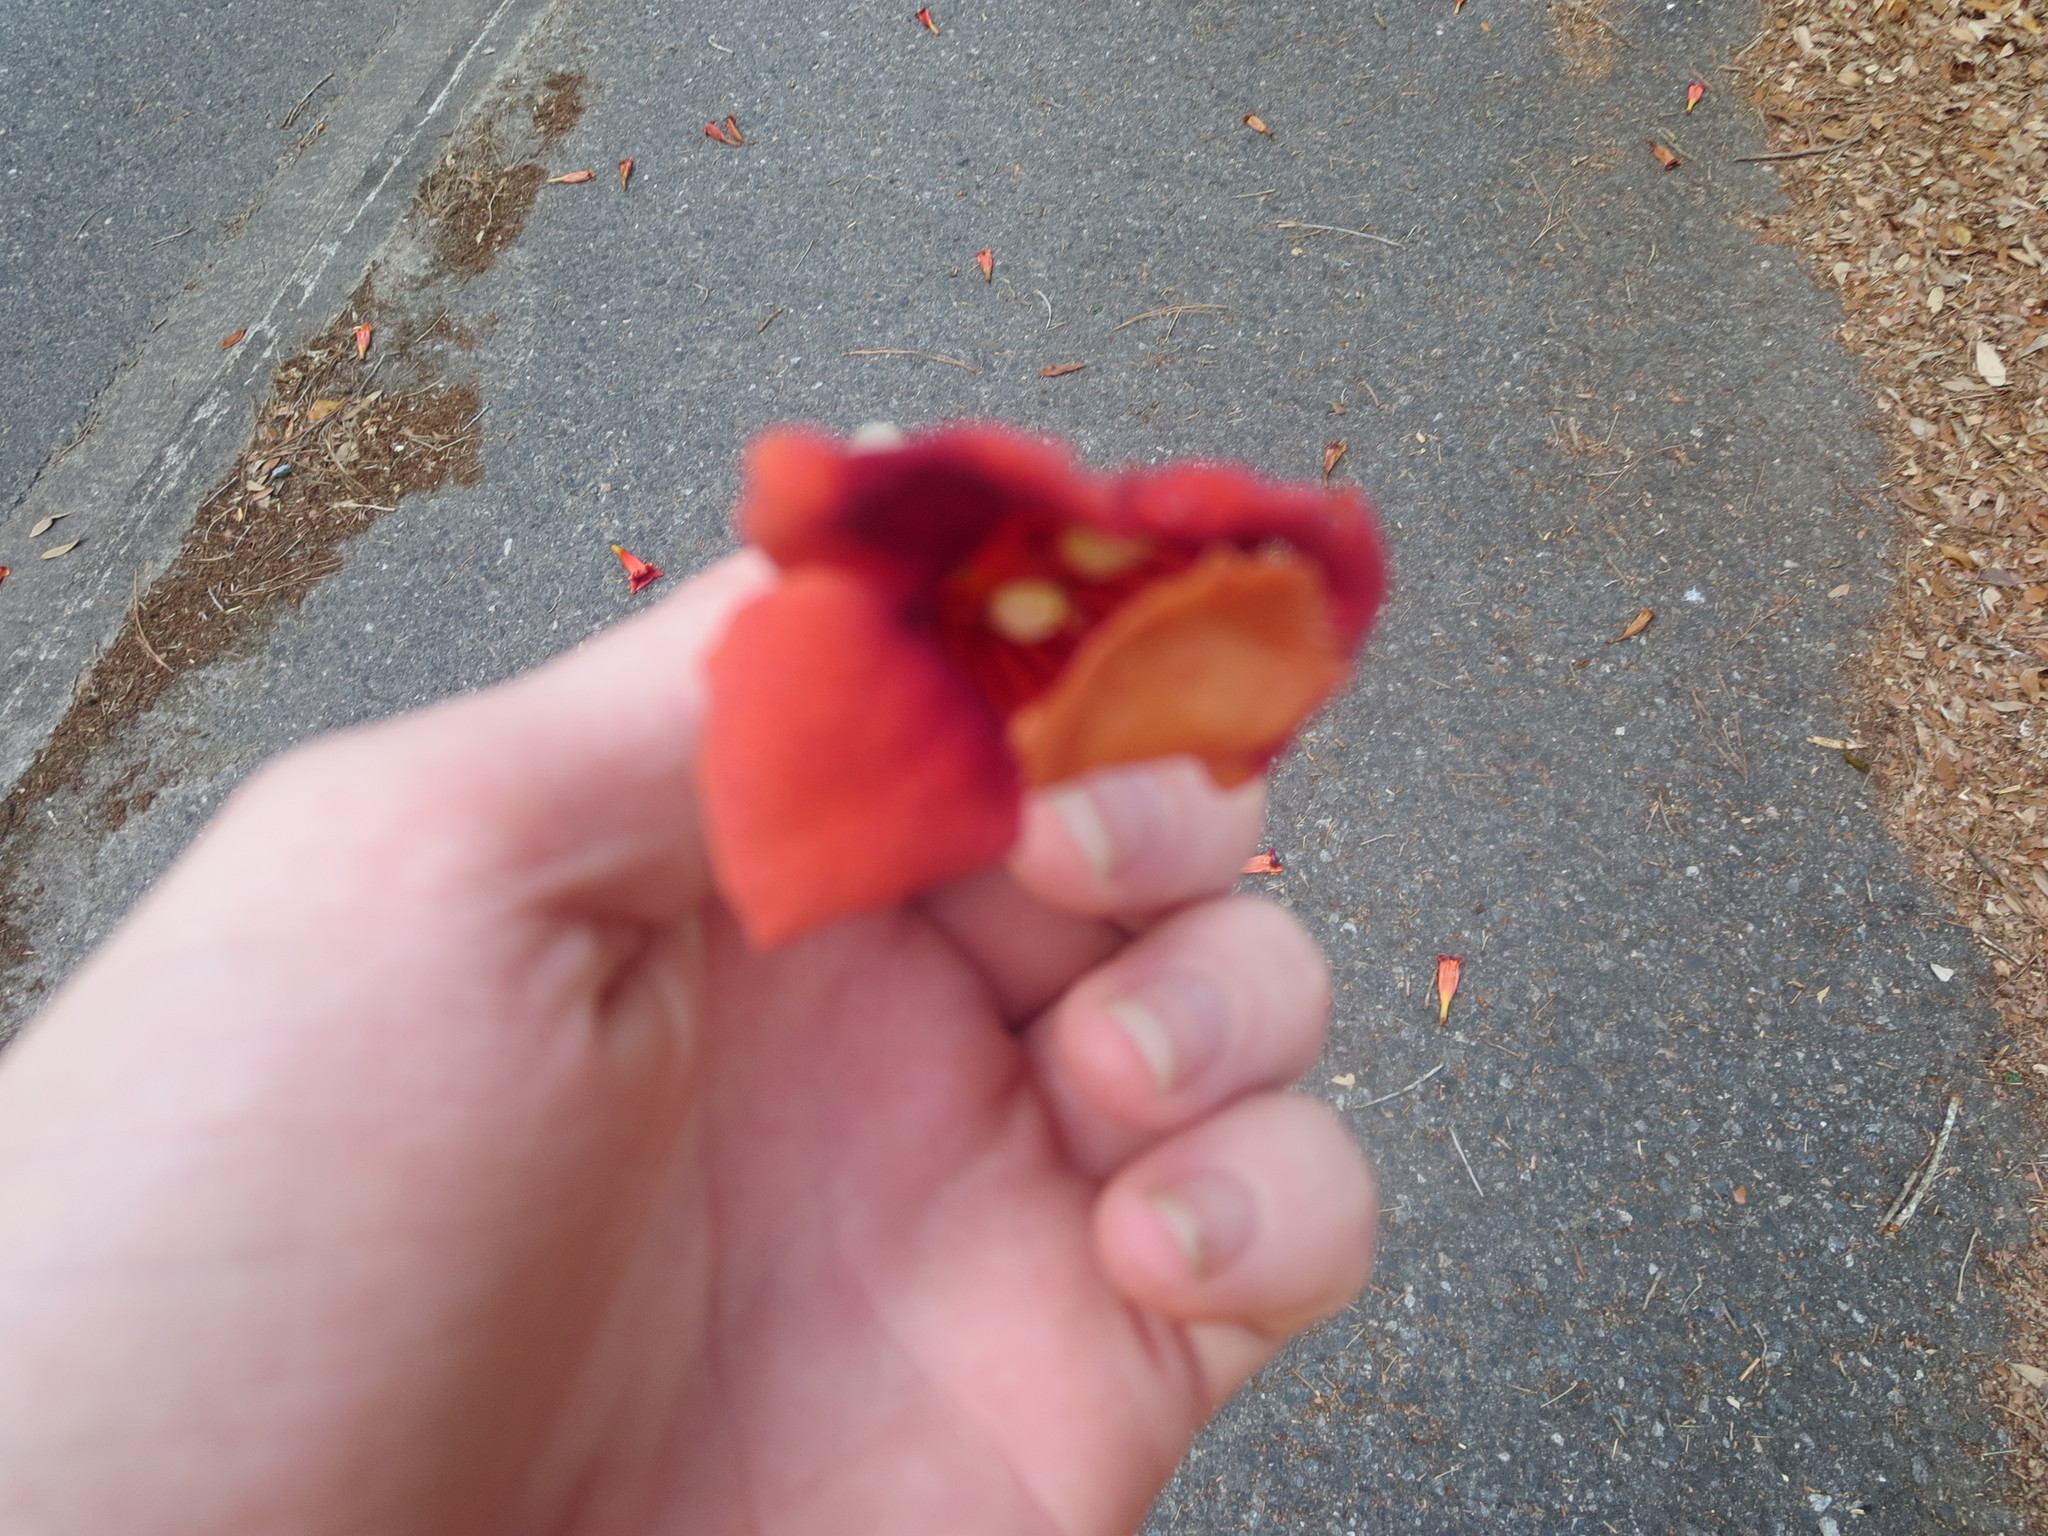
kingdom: Plantae
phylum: Tracheophyta
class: Magnoliopsida
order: Lamiales
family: Bignoniaceae
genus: Campsis
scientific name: Campsis radicans
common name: Trumpet-creeper
